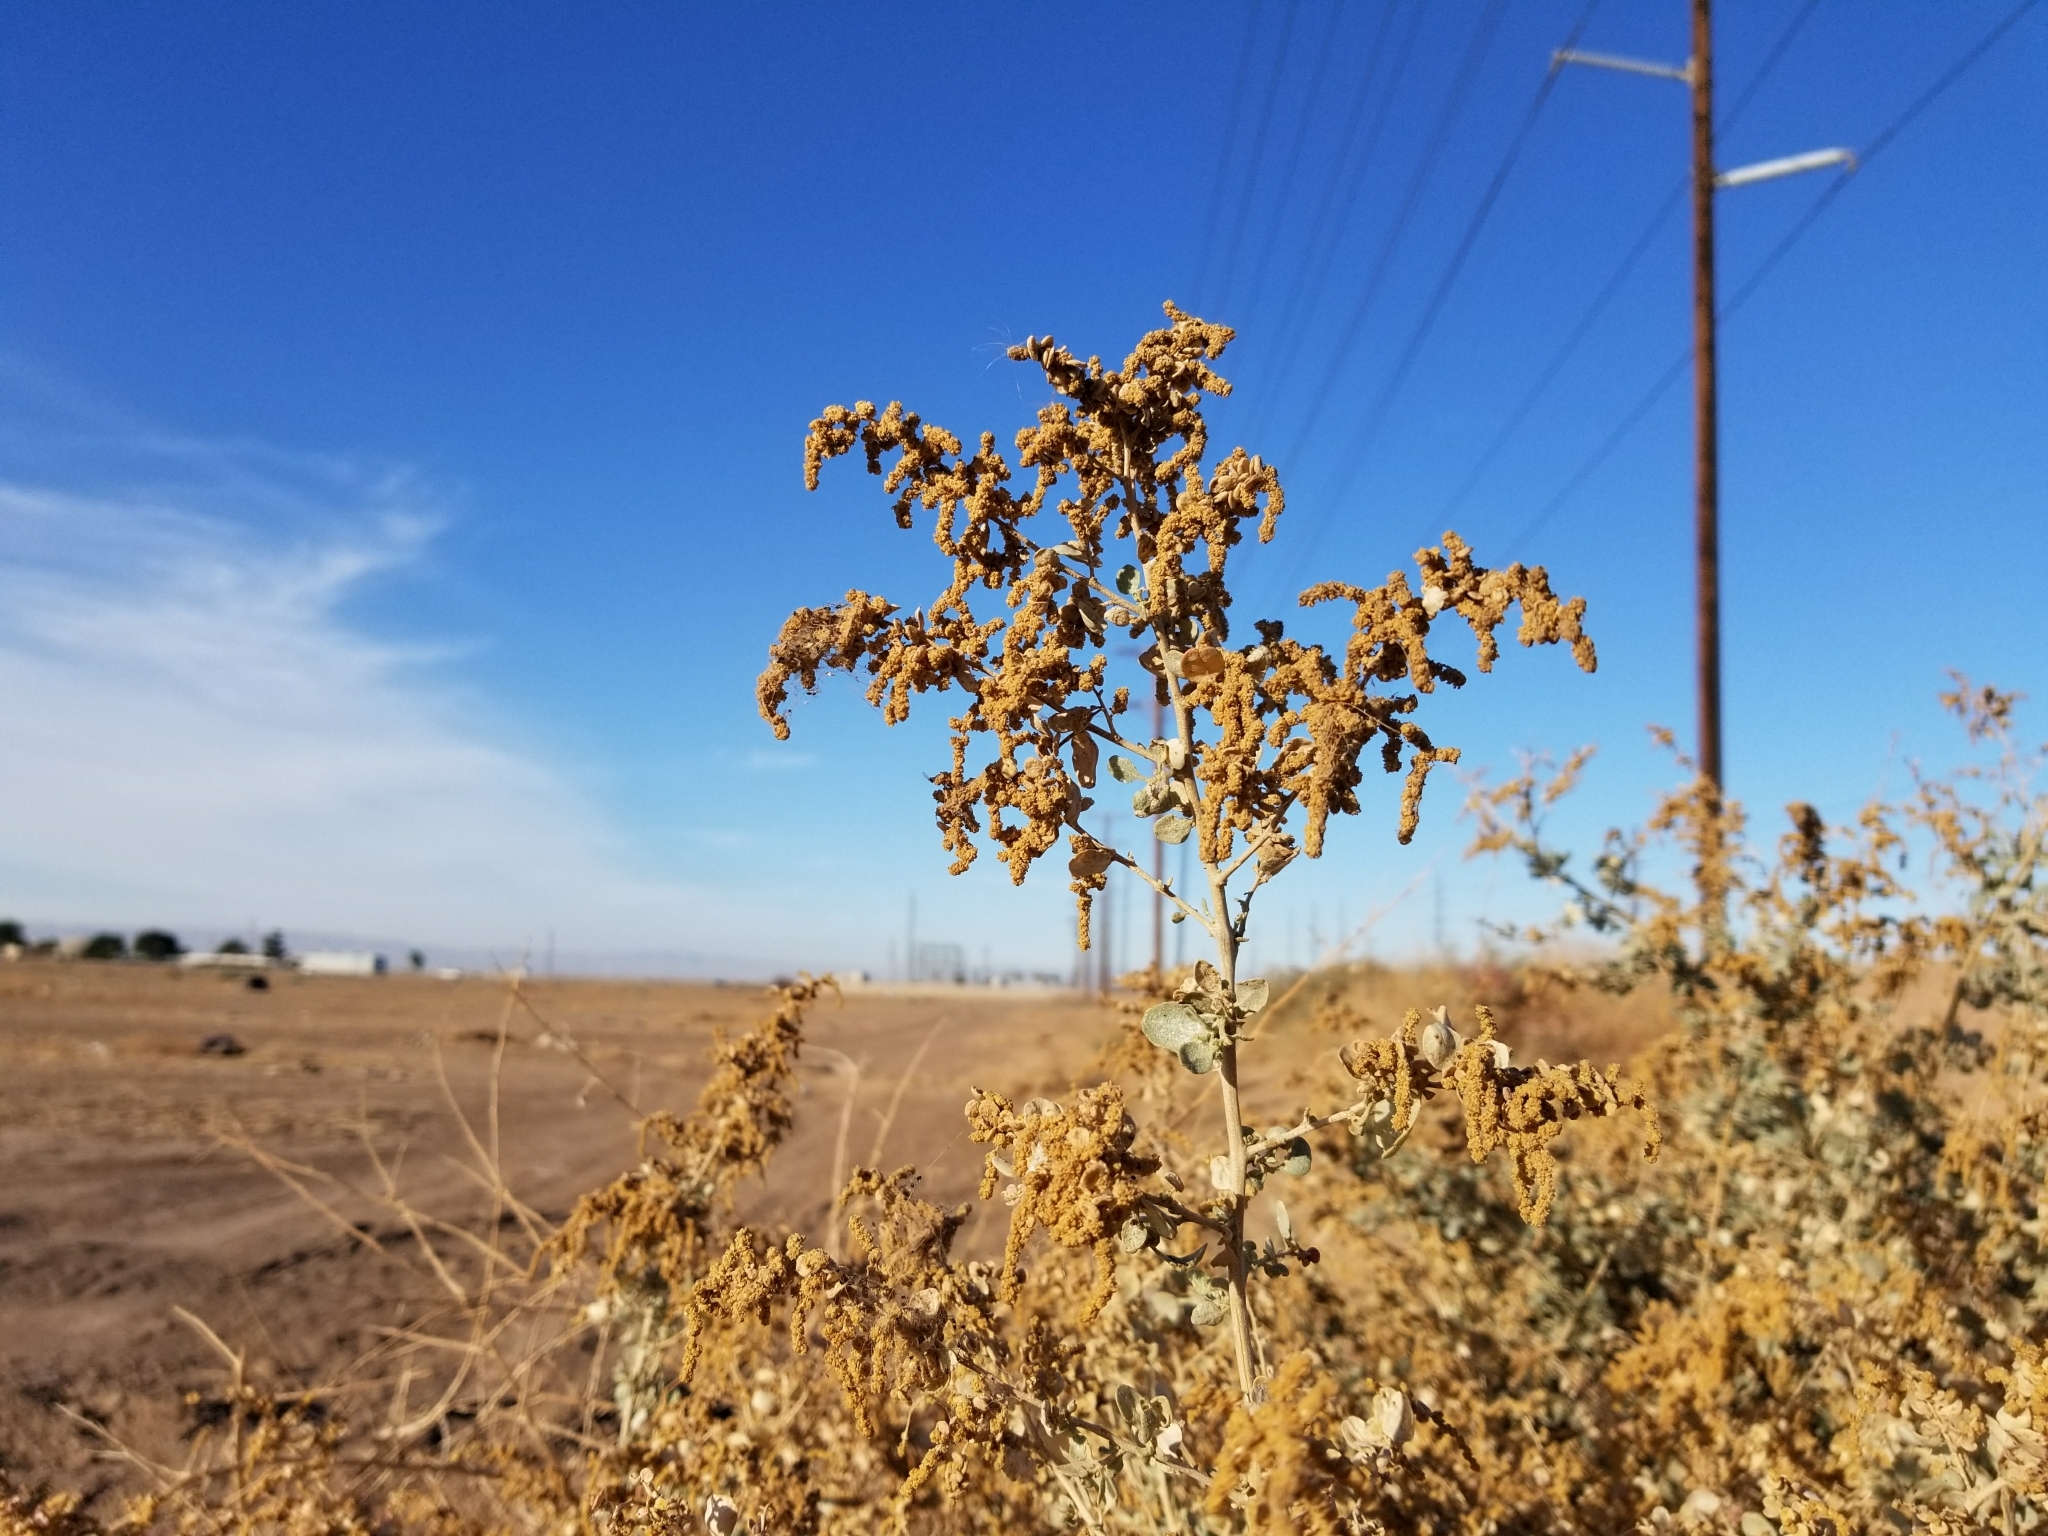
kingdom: Plantae
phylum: Tracheophyta
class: Magnoliopsida
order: Caryophyllales
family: Amaranthaceae
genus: Atriplex
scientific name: Atriplex lentiformis
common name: Big saltbush
